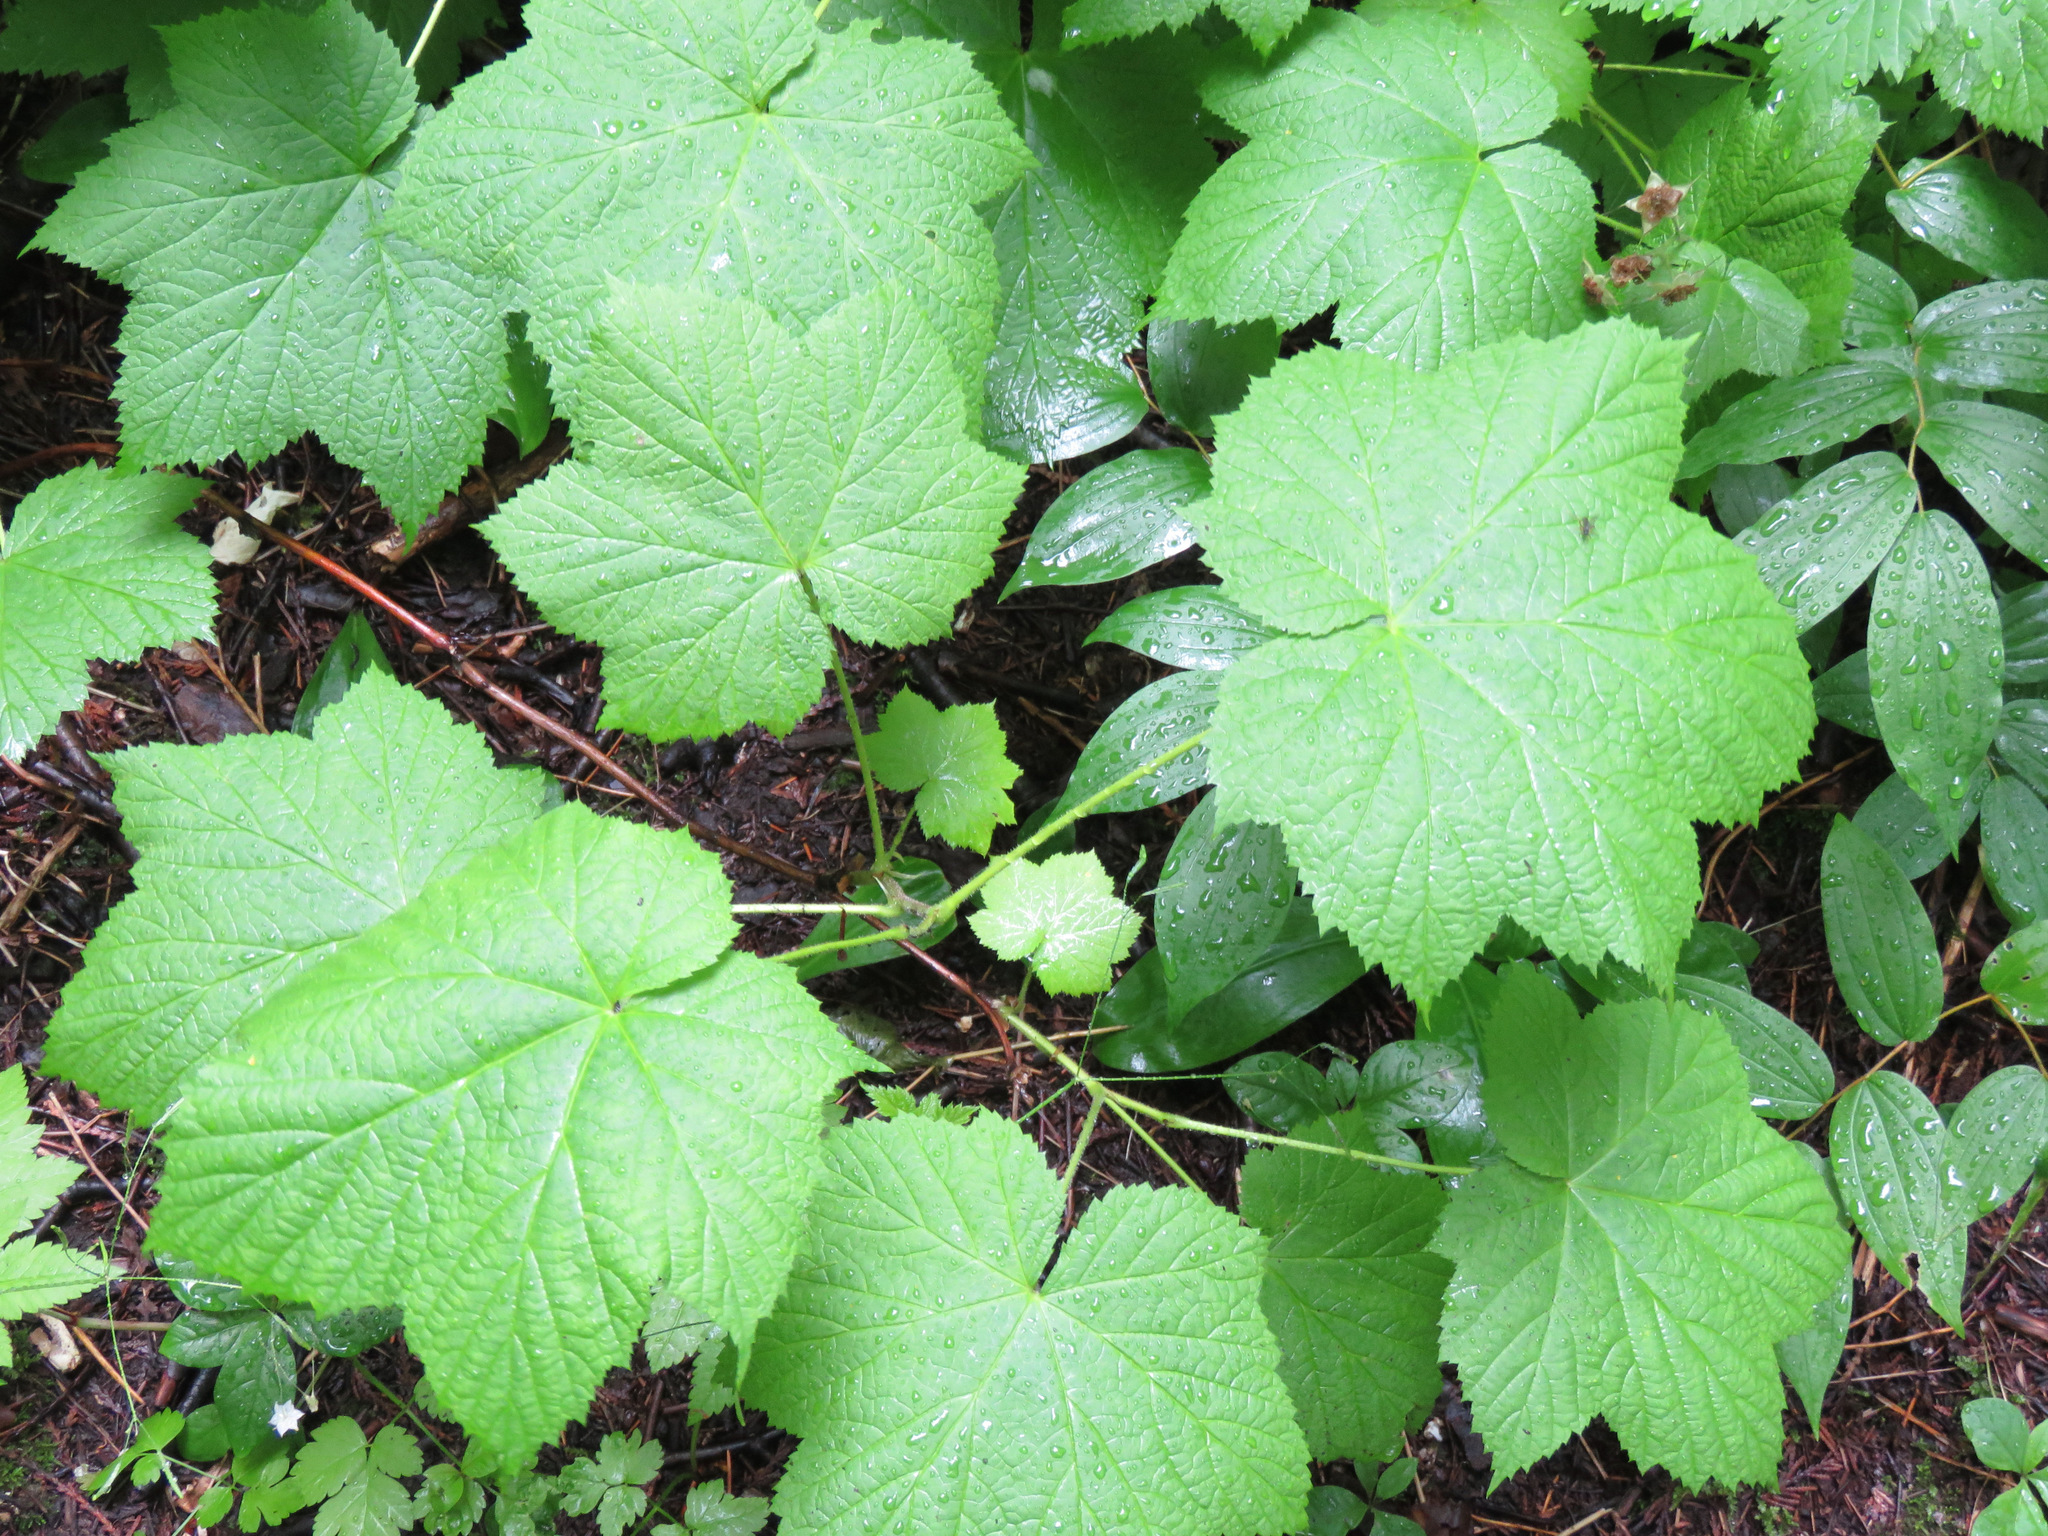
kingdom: Plantae
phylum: Tracheophyta
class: Magnoliopsida
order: Rosales
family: Rosaceae
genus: Rubus
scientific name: Rubus parviflorus
